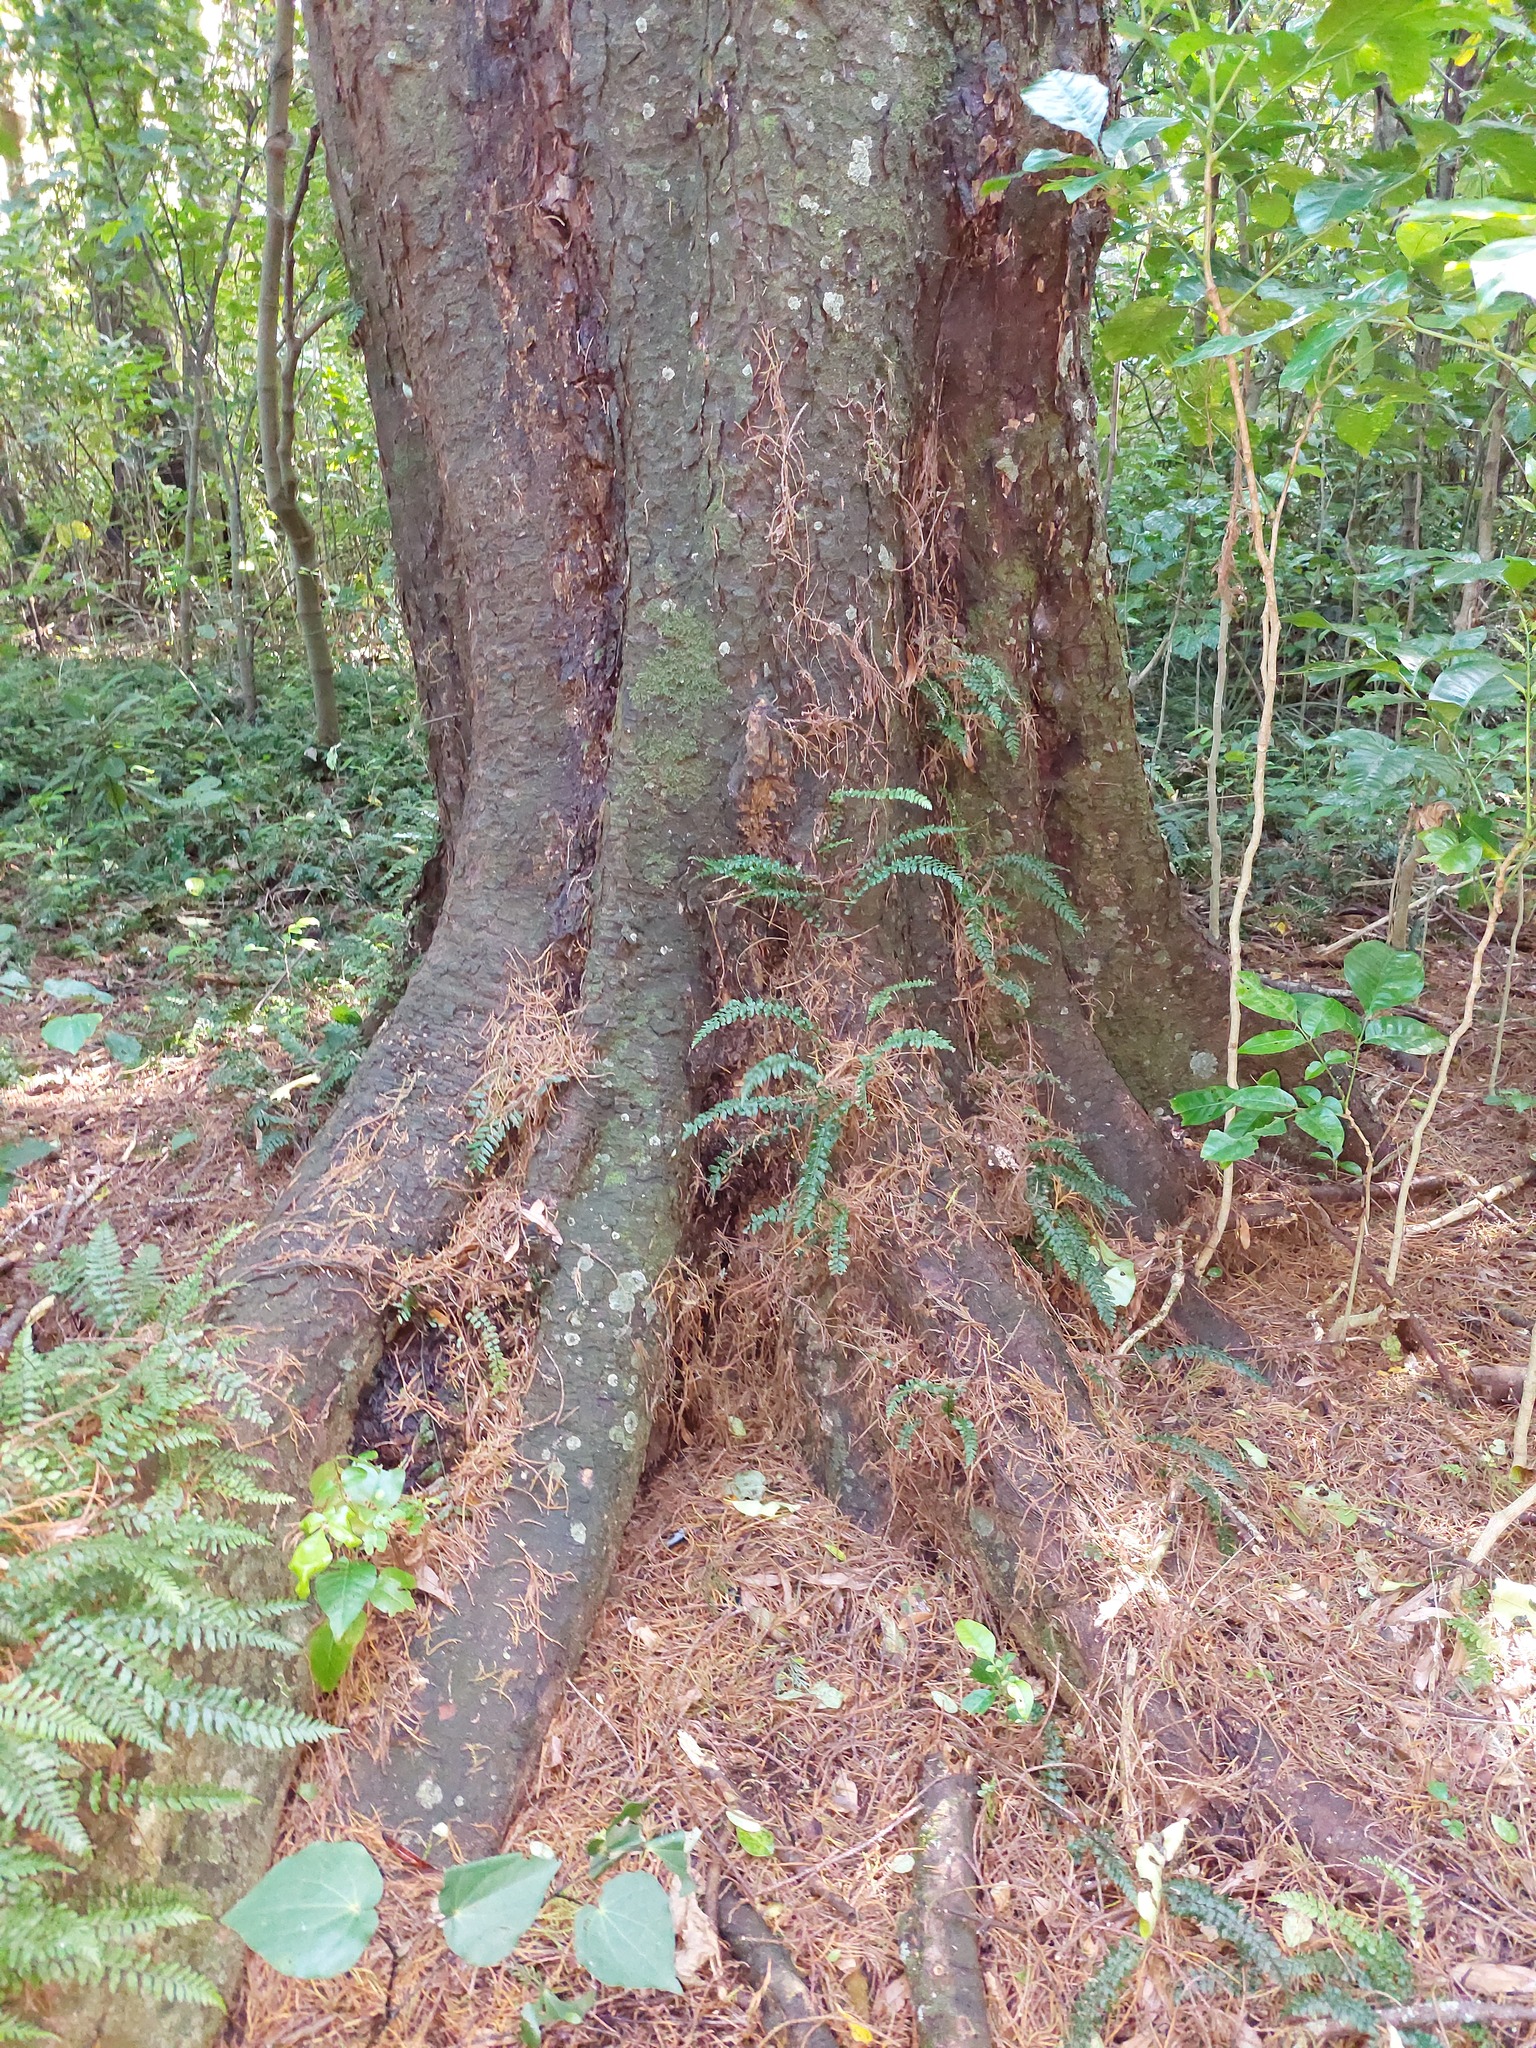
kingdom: Plantae
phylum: Tracheophyta
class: Pinopsida
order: Pinales
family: Podocarpaceae
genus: Dacrycarpus
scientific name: Dacrycarpus dacrydioides
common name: White pine
